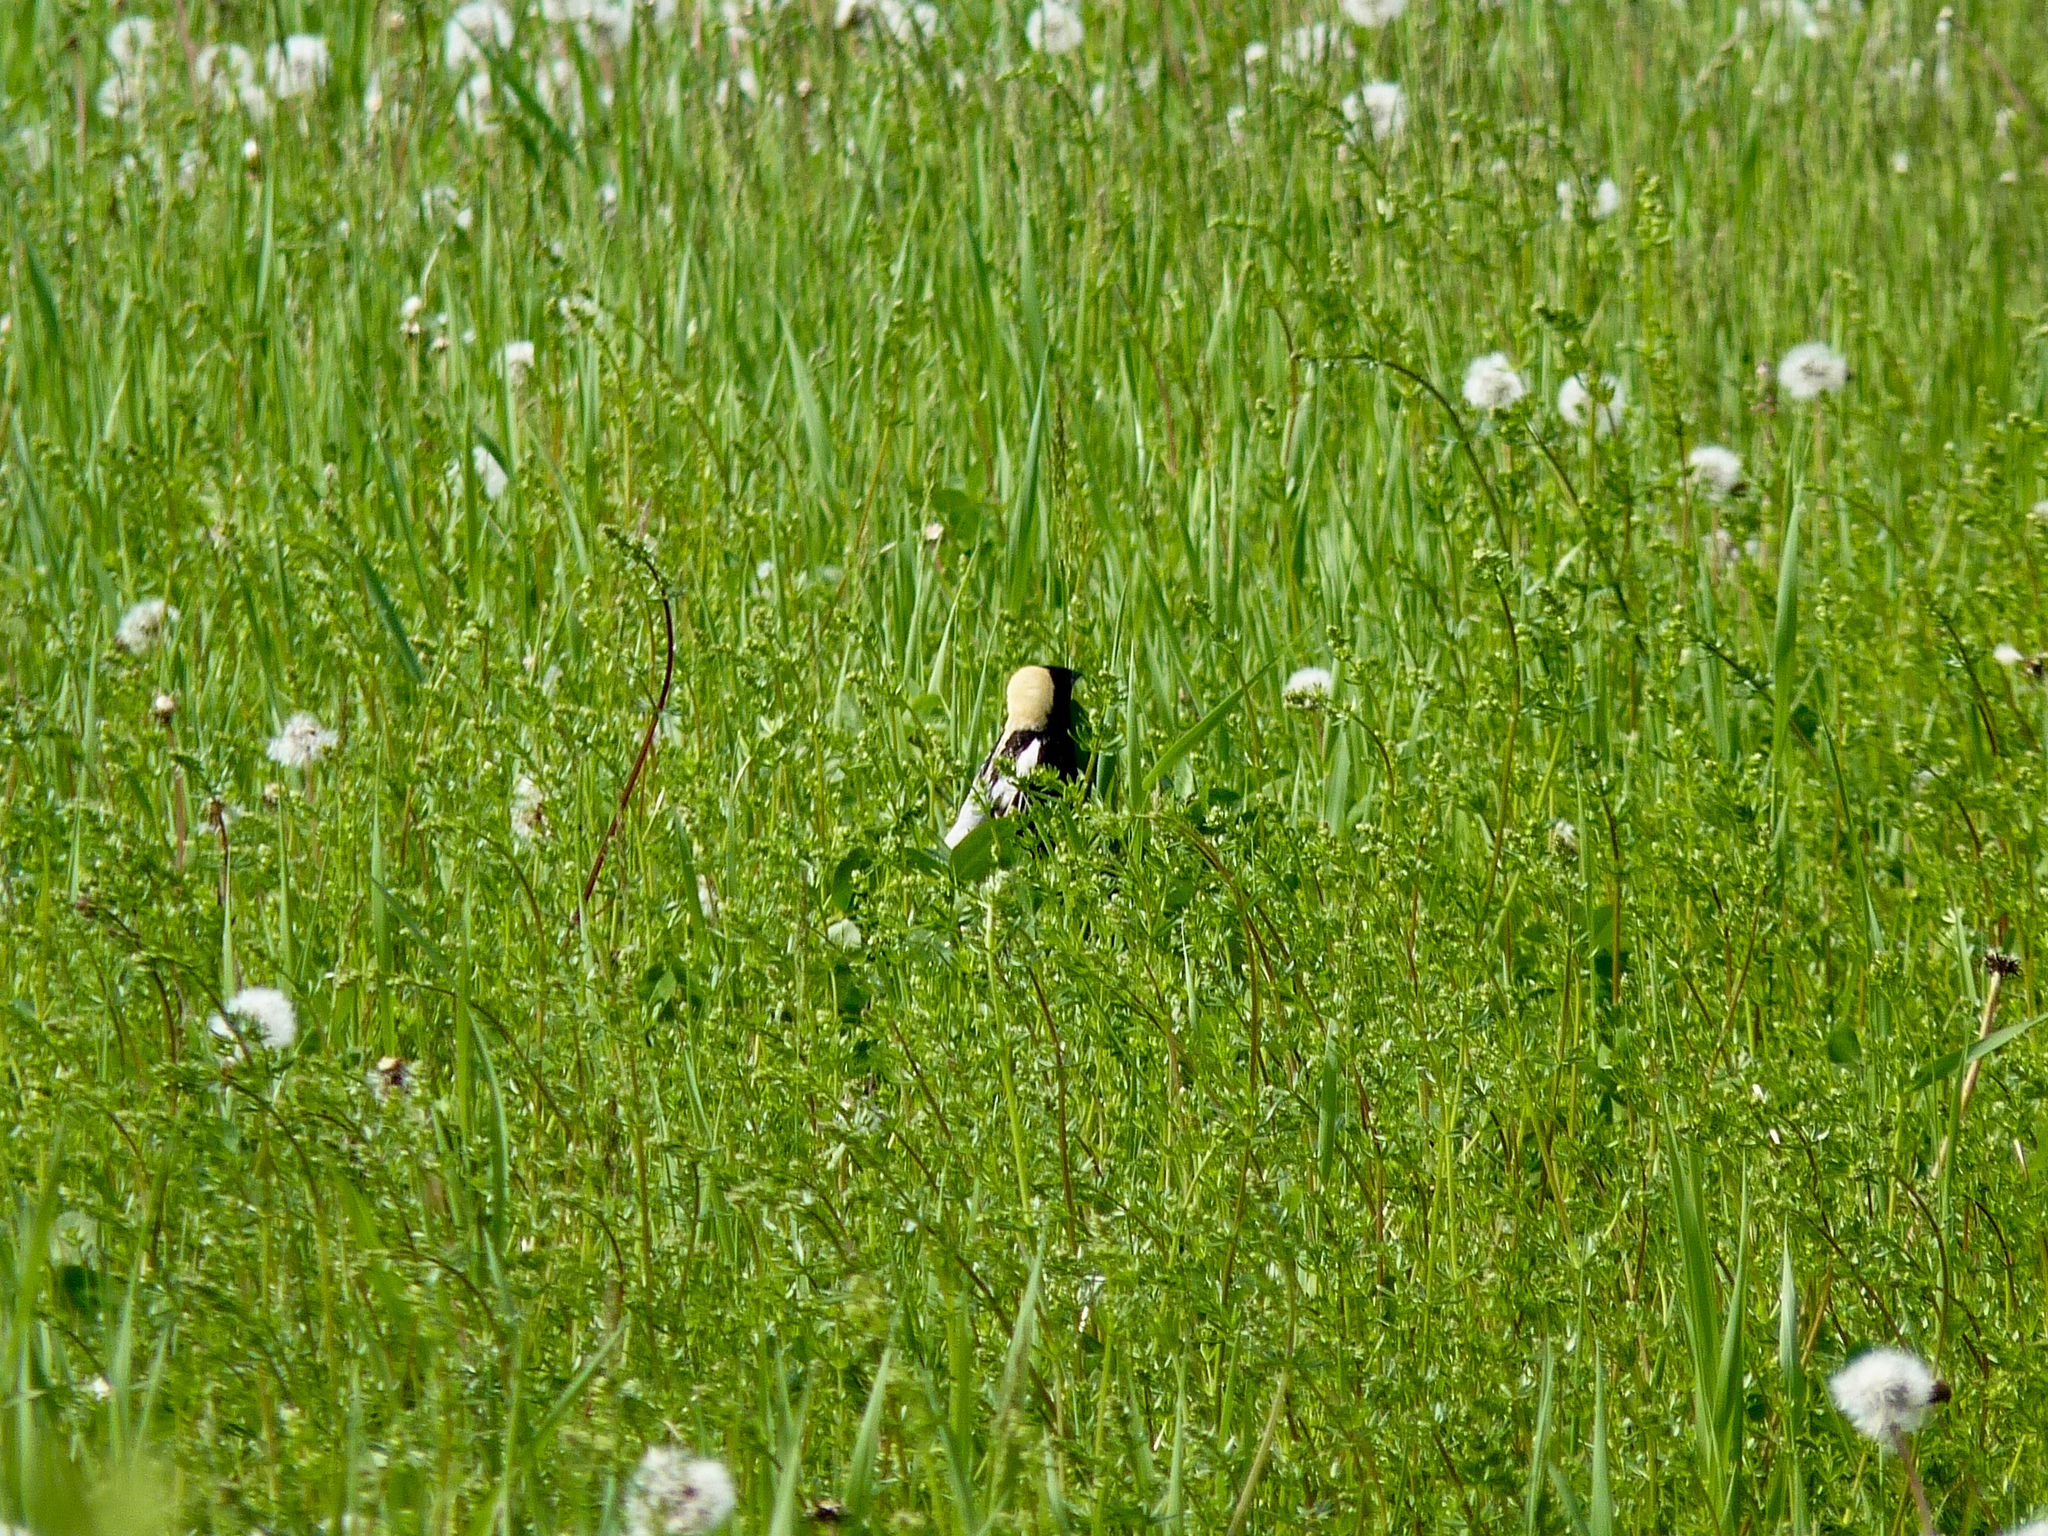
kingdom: Animalia
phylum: Chordata
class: Aves
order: Passeriformes
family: Icteridae
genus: Dolichonyx
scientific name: Dolichonyx oryzivorus
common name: Bobolink
